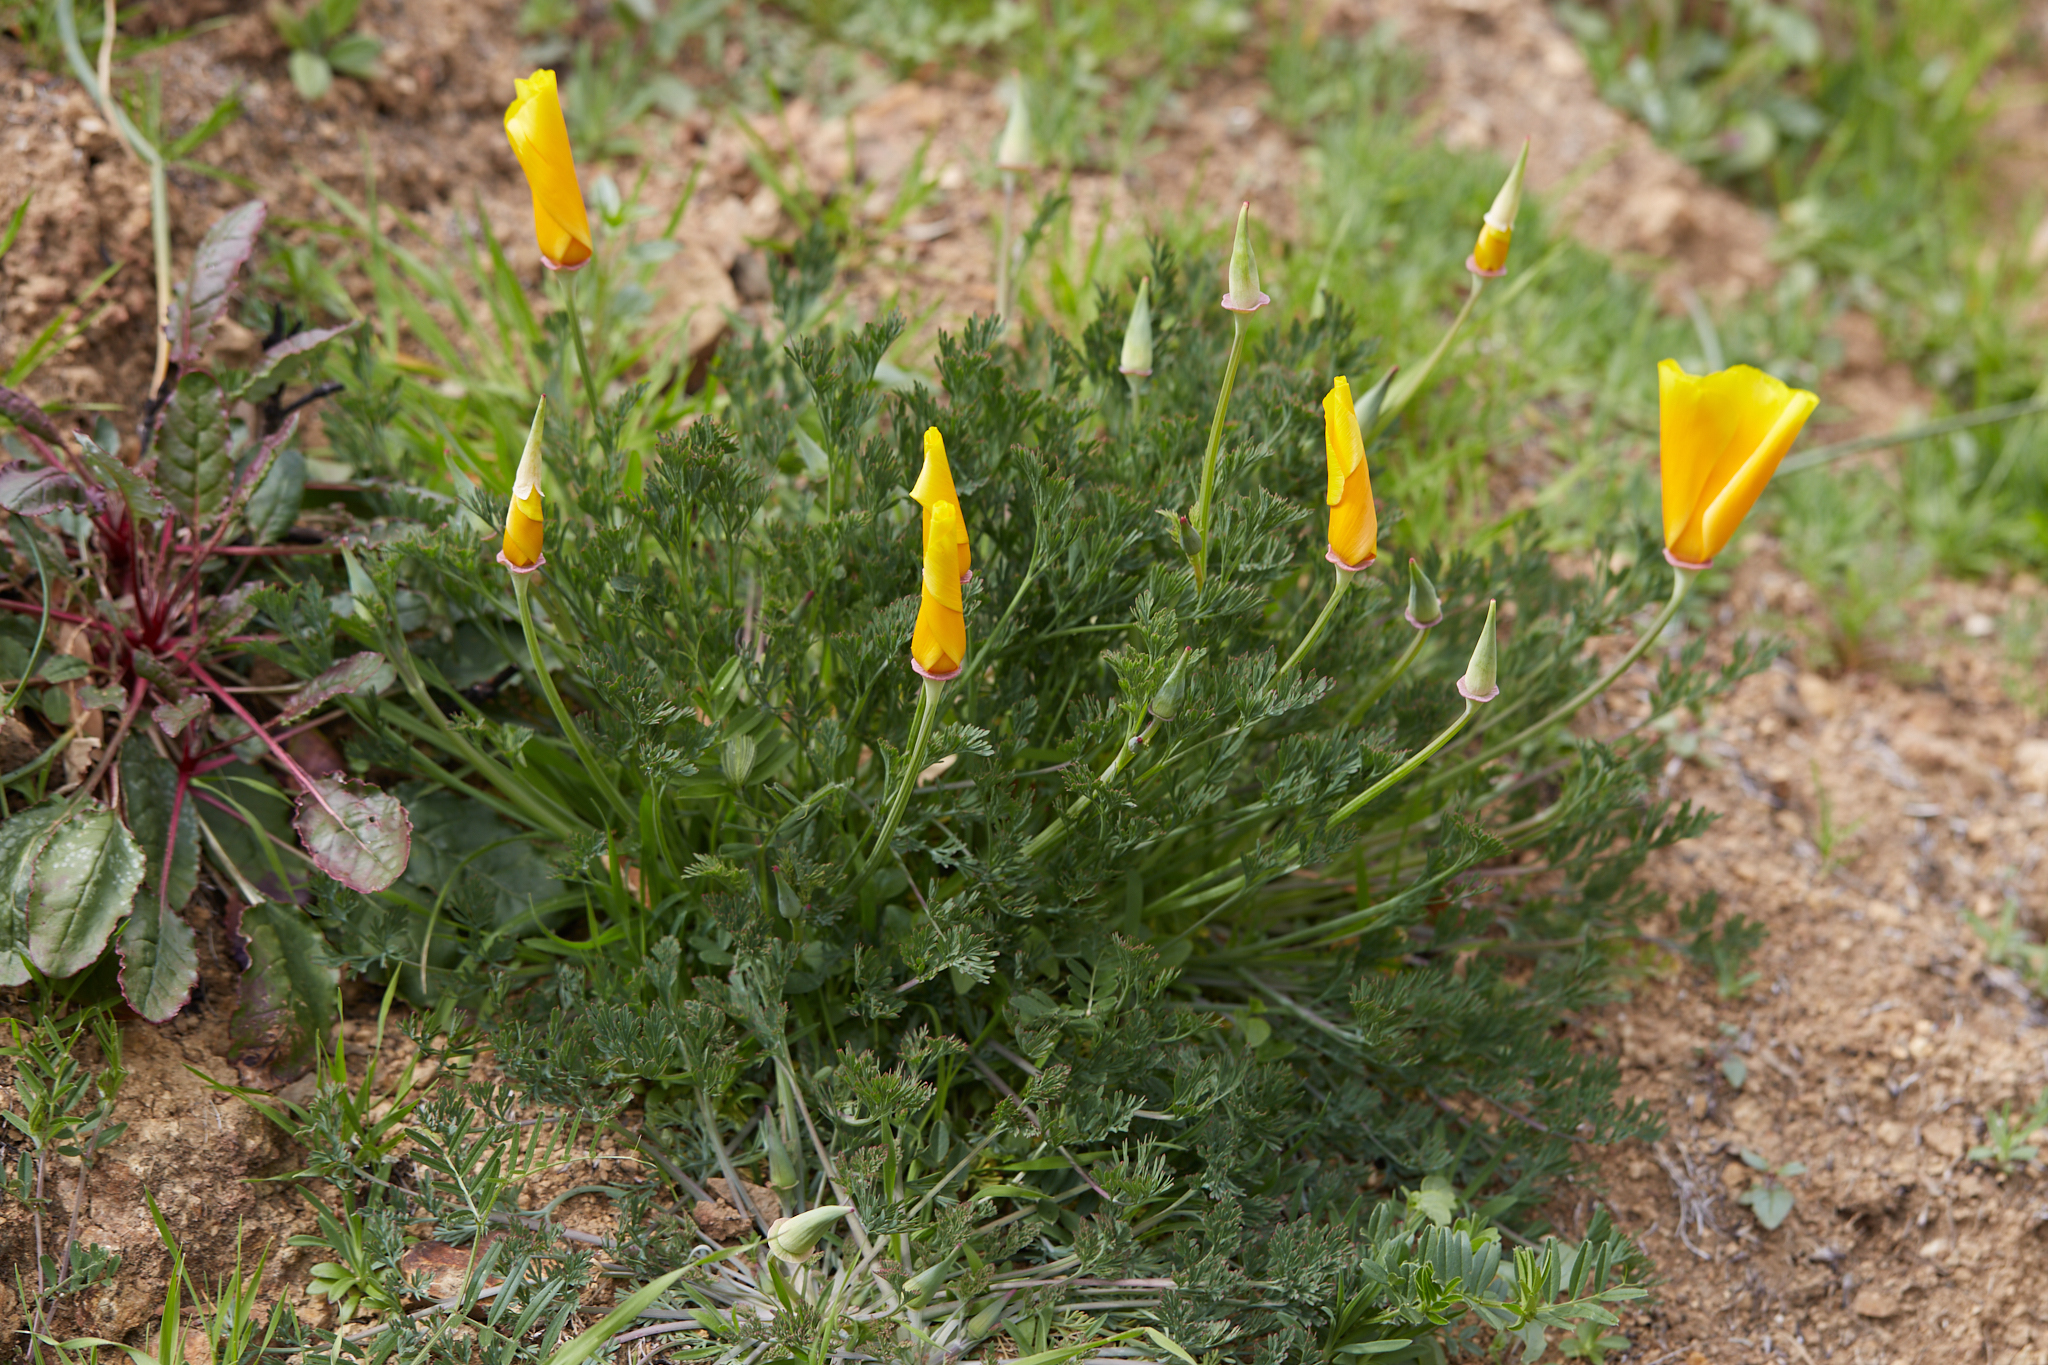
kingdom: Plantae
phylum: Tracheophyta
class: Magnoliopsida
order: Ranunculales
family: Papaveraceae
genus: Eschscholzia
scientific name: Eschscholzia californica
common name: California poppy
